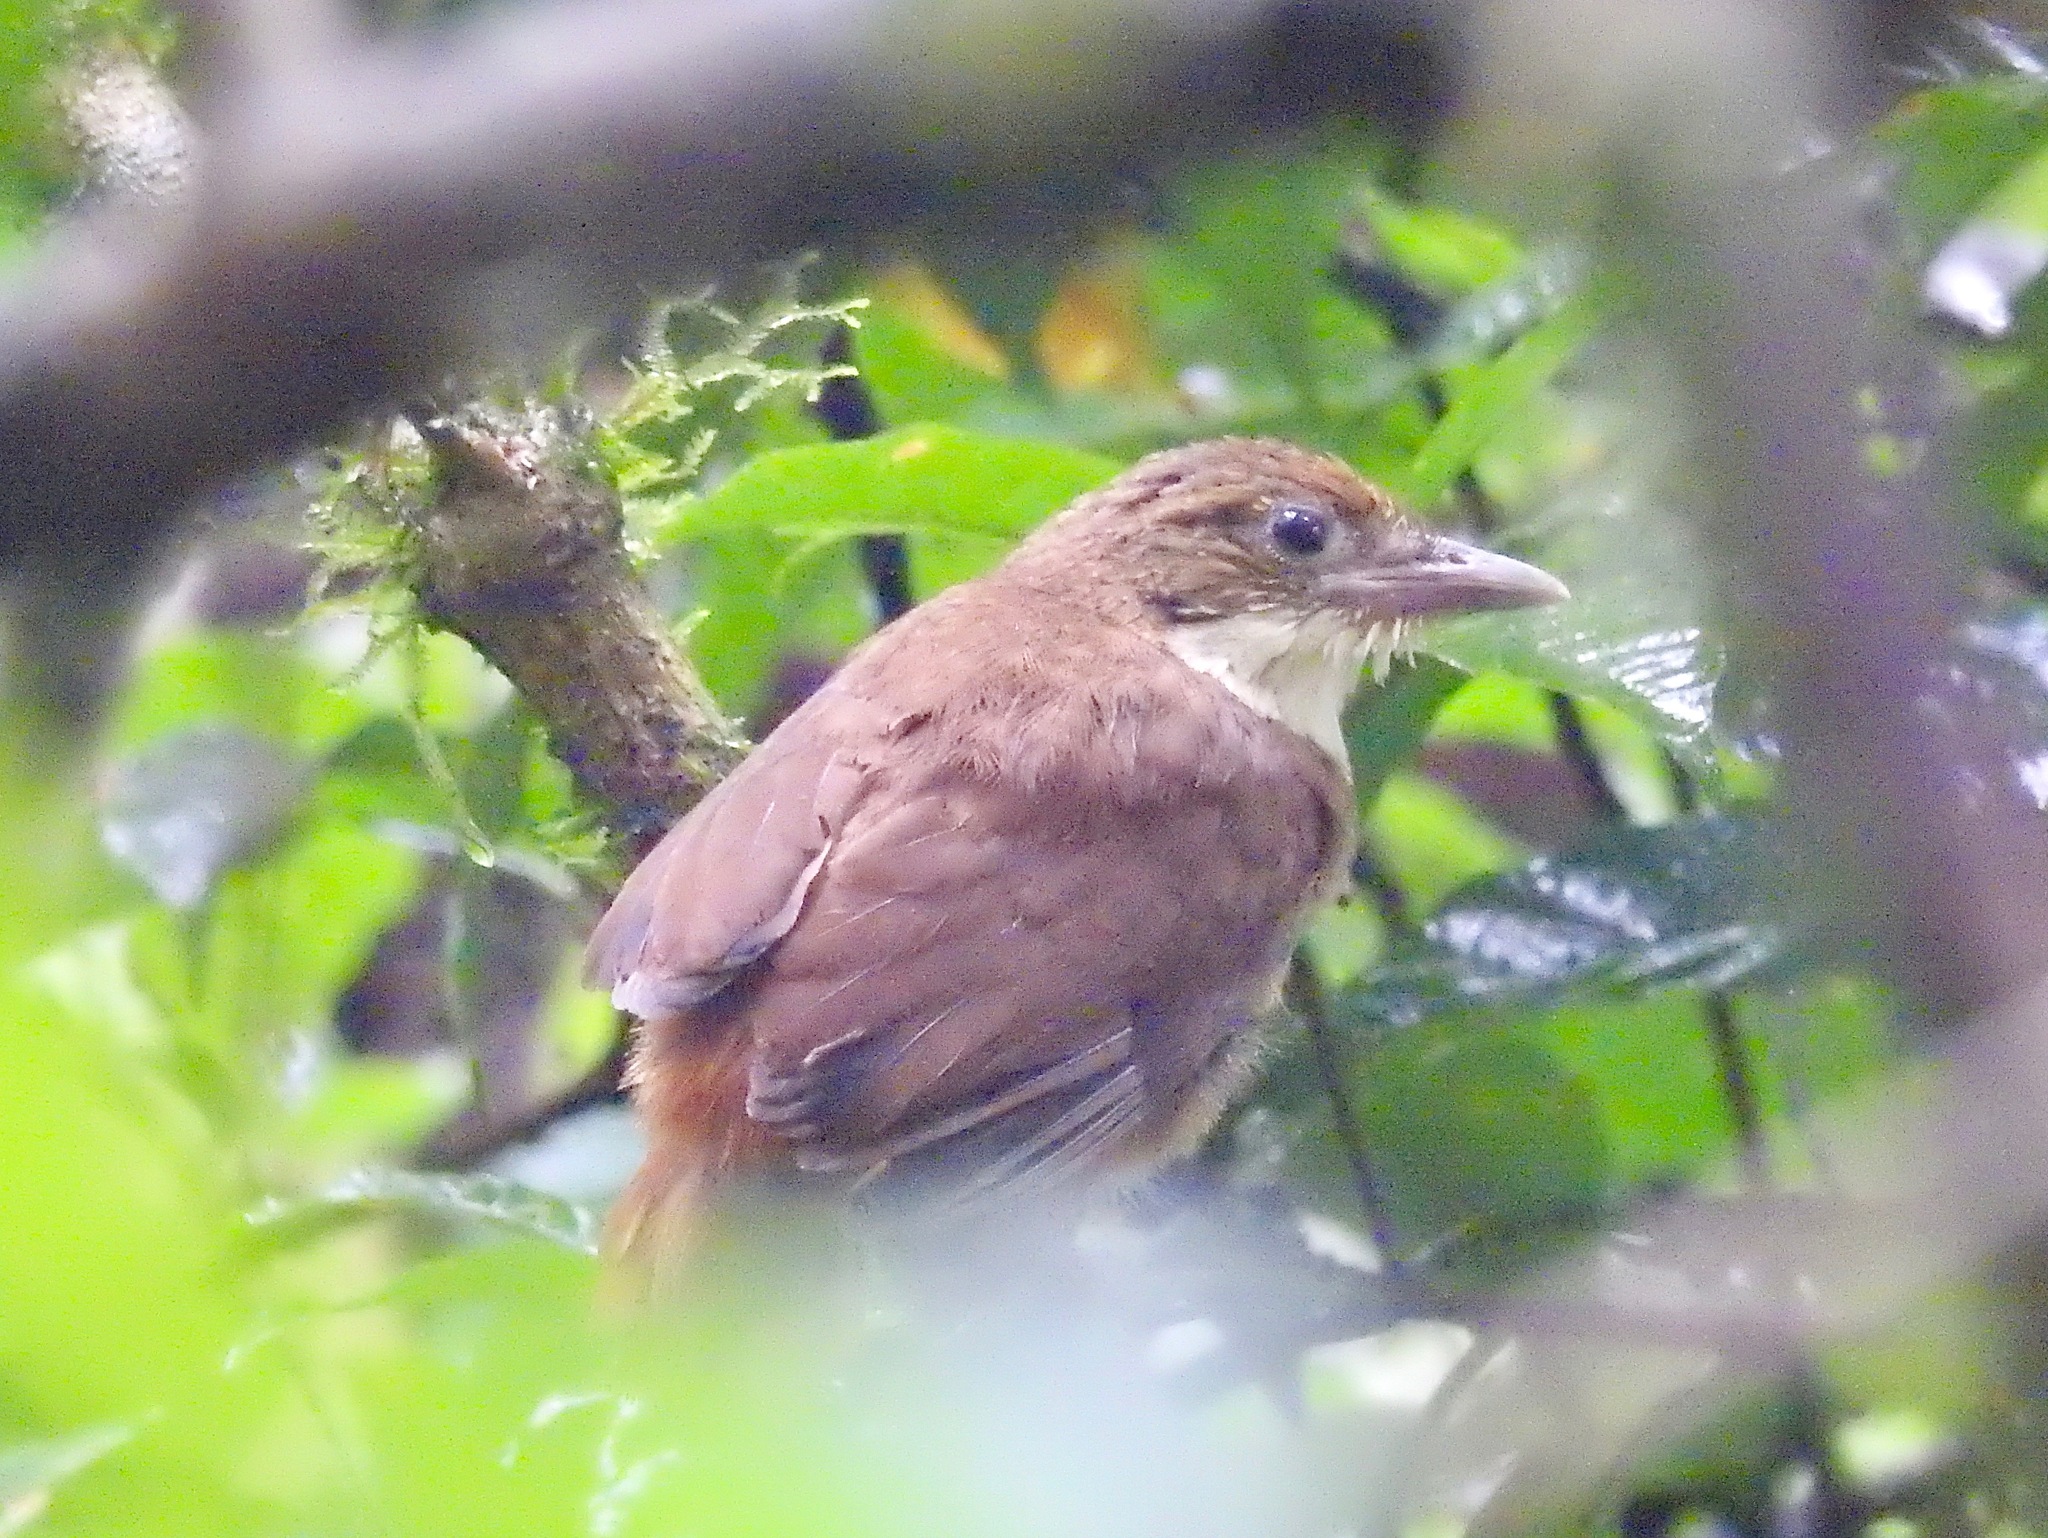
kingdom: Animalia
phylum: Chordata
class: Aves
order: Passeriformes
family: Furnariidae
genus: Automolus
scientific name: Automolus leucophthalmus
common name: White-eyed foliage-gleaner
